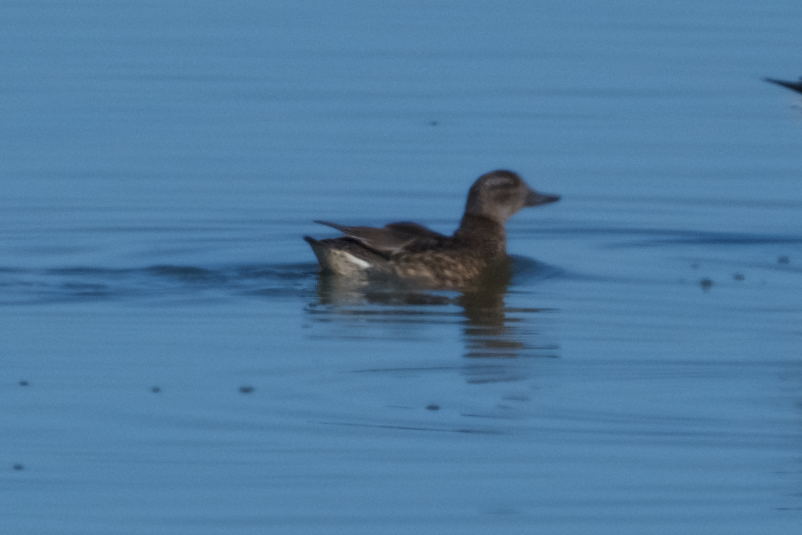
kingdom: Animalia
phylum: Chordata
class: Aves
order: Anseriformes
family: Anatidae
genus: Mareca
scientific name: Mareca strepera
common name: Gadwall
